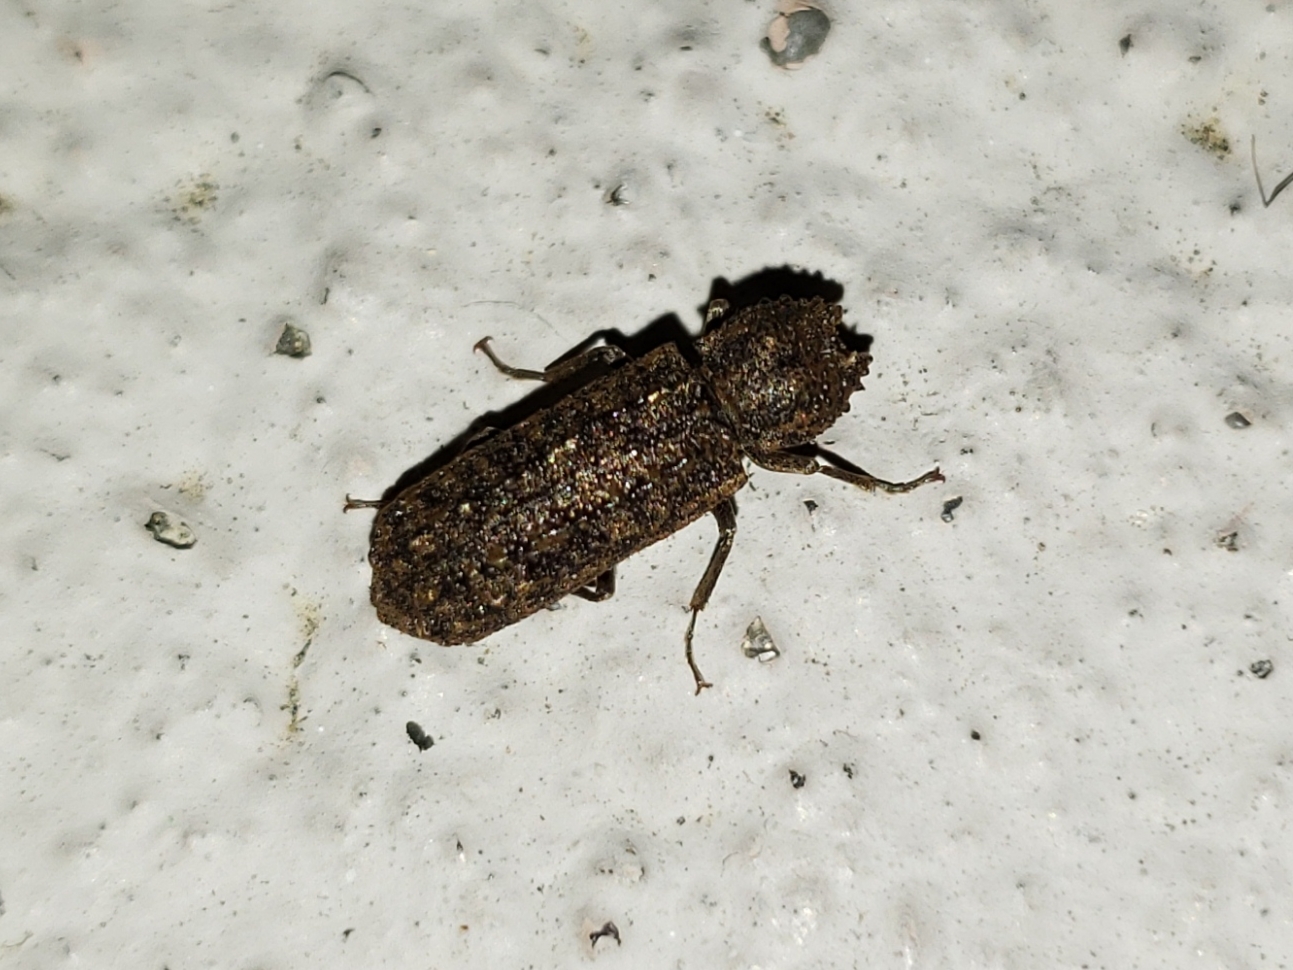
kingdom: Animalia
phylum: Arthropoda
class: Insecta
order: Coleoptera
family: Bostrichidae
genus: Lichenophanes
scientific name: Lichenophanes bicornis
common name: Two-horned powder-post beetle
